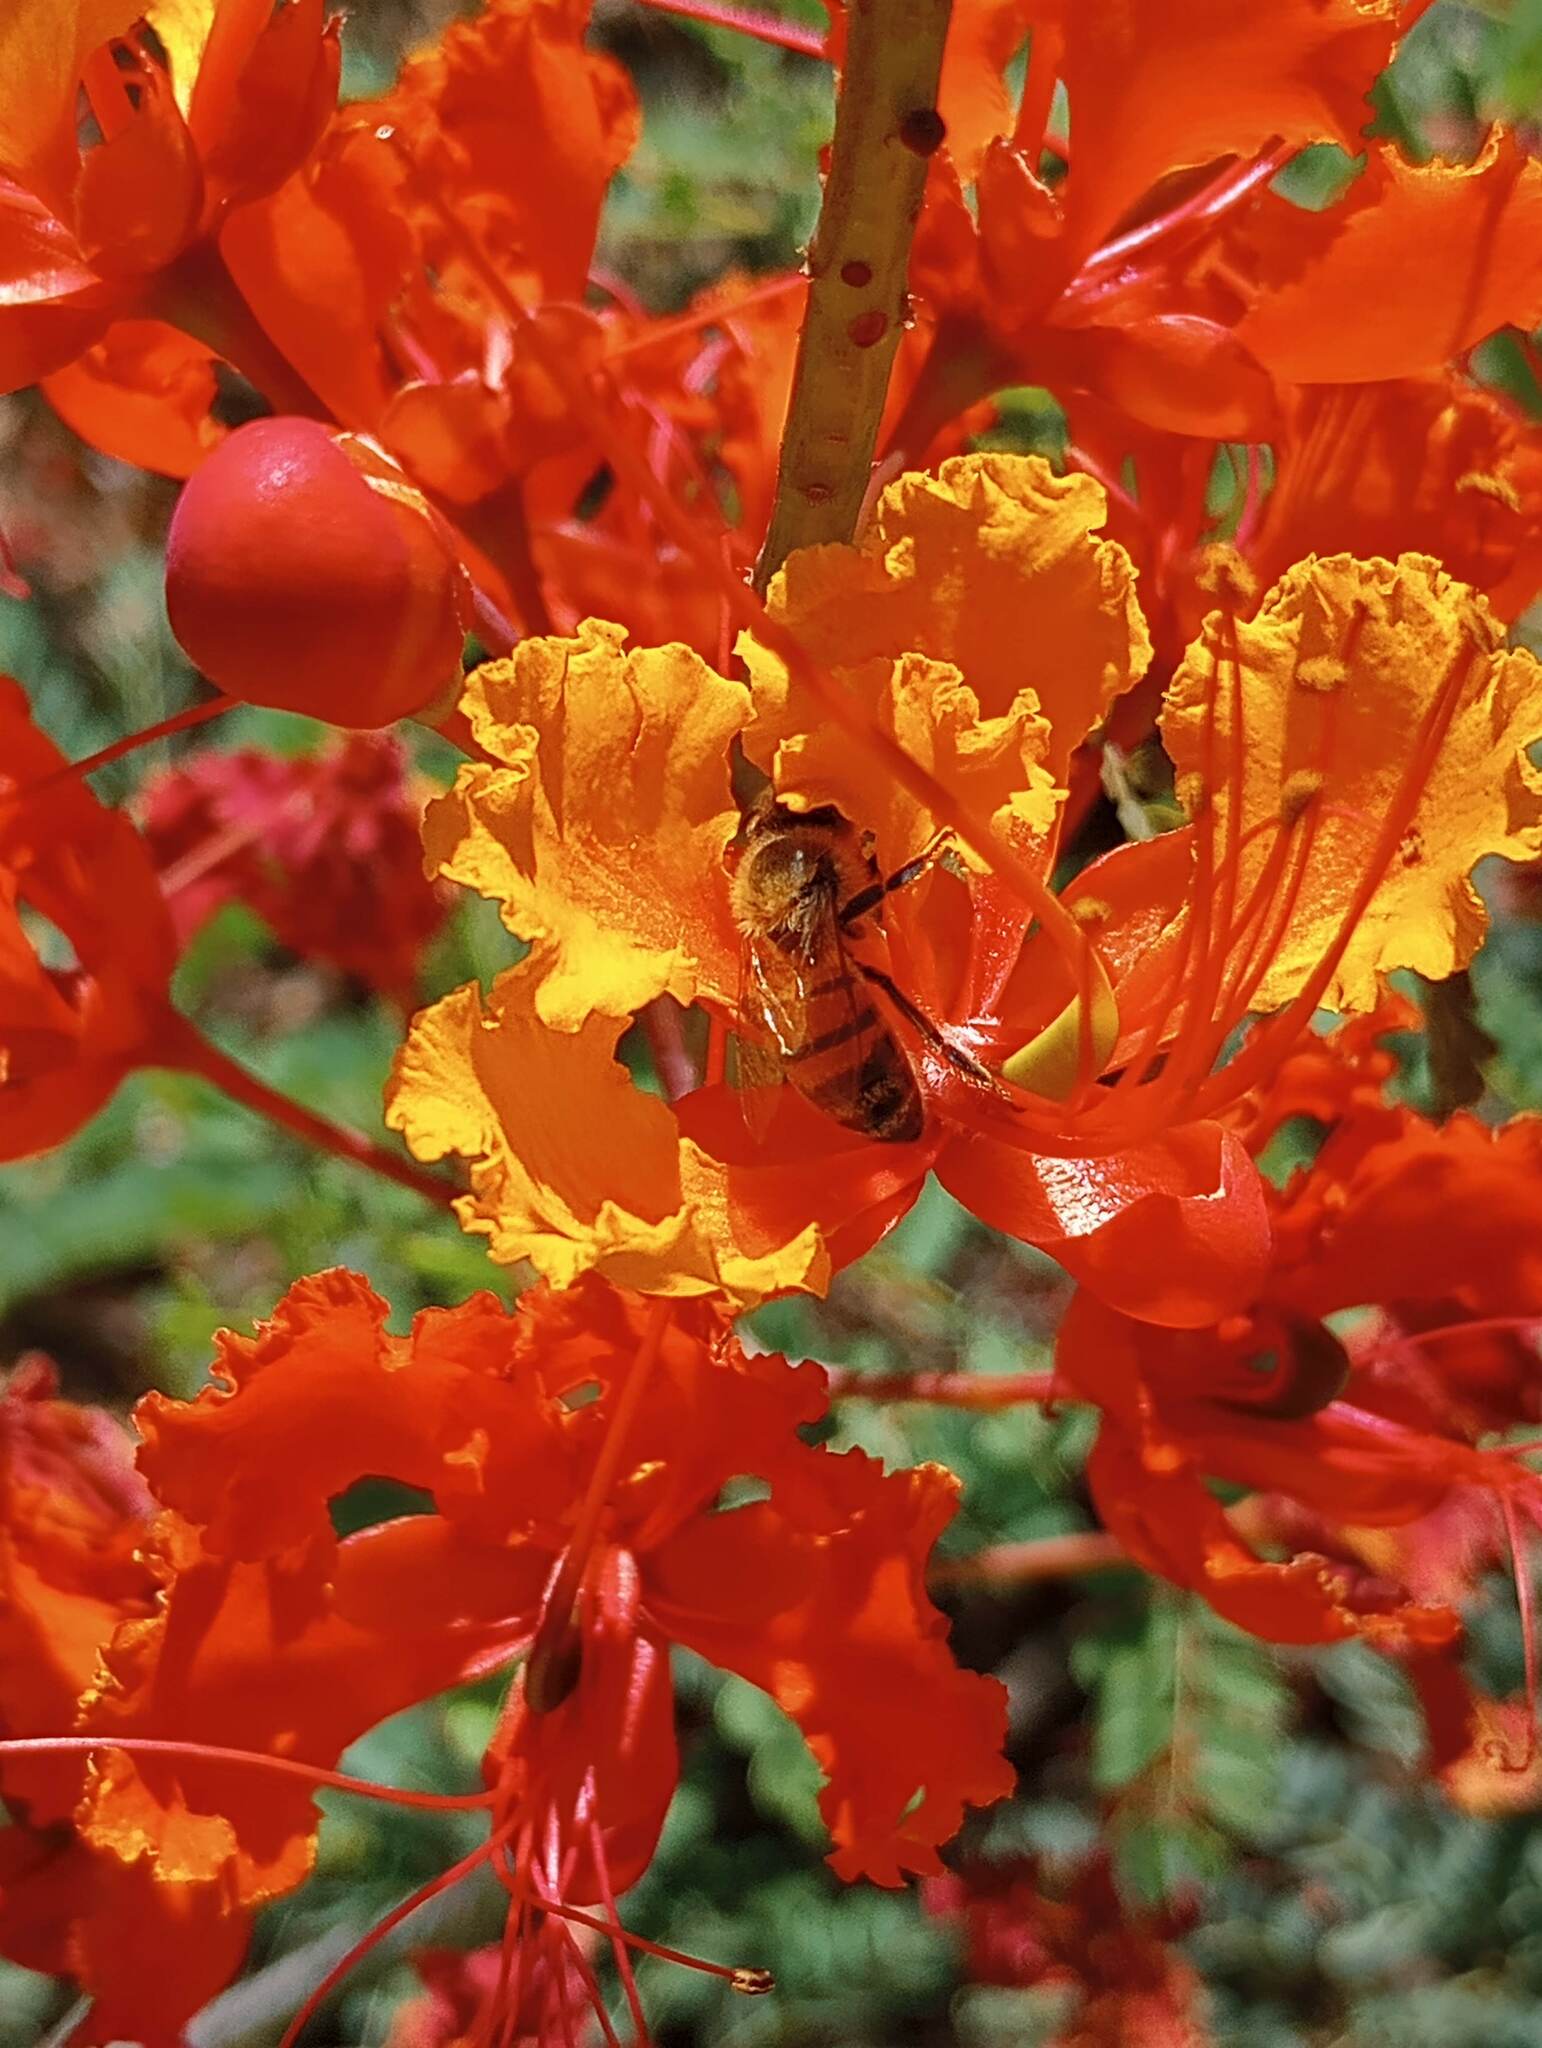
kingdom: Animalia
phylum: Arthropoda
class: Insecta
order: Hymenoptera
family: Apidae
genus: Apis
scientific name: Apis mellifera
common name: Honey bee
